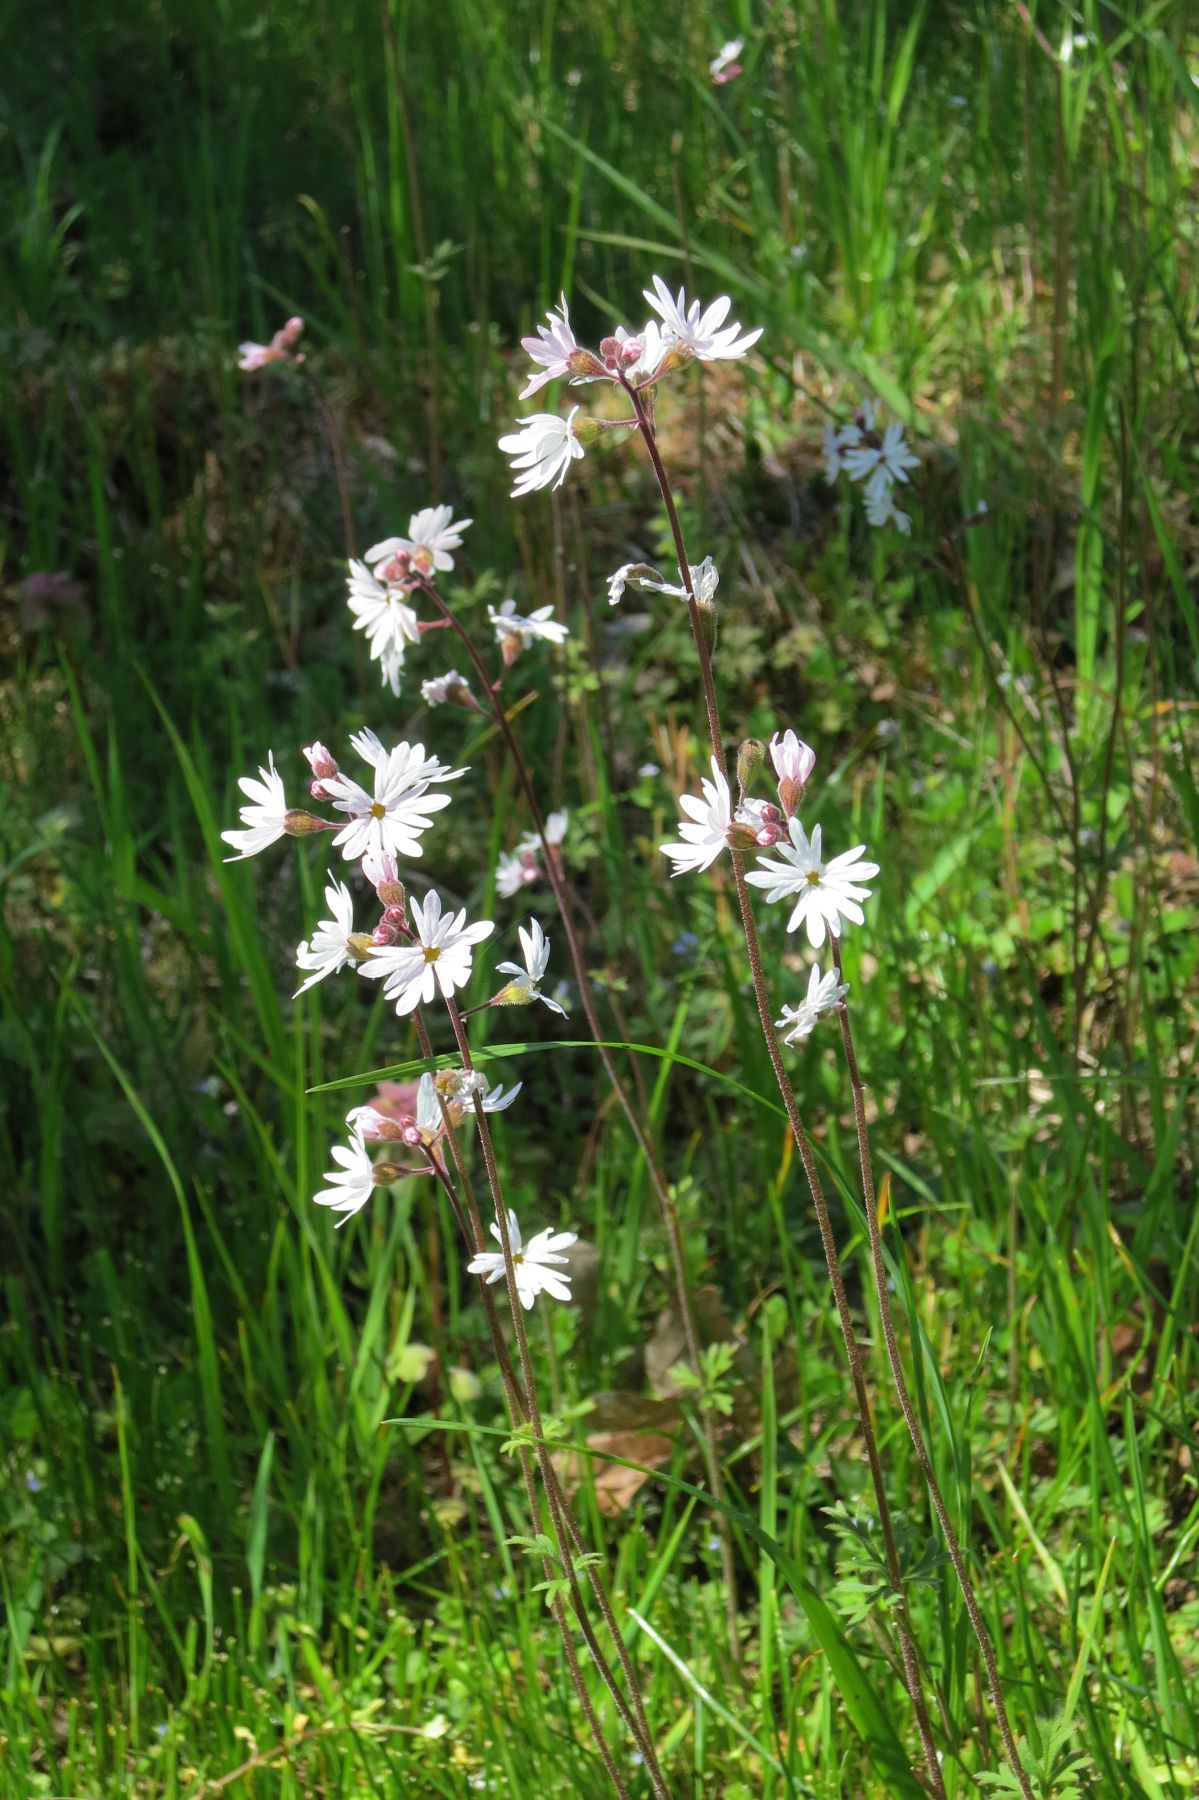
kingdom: Plantae
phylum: Tracheophyta
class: Magnoliopsida
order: Saxifragales
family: Saxifragaceae
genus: Lithophragma
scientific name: Lithophragma parviflorum
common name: Small-flowered fringe-cup
